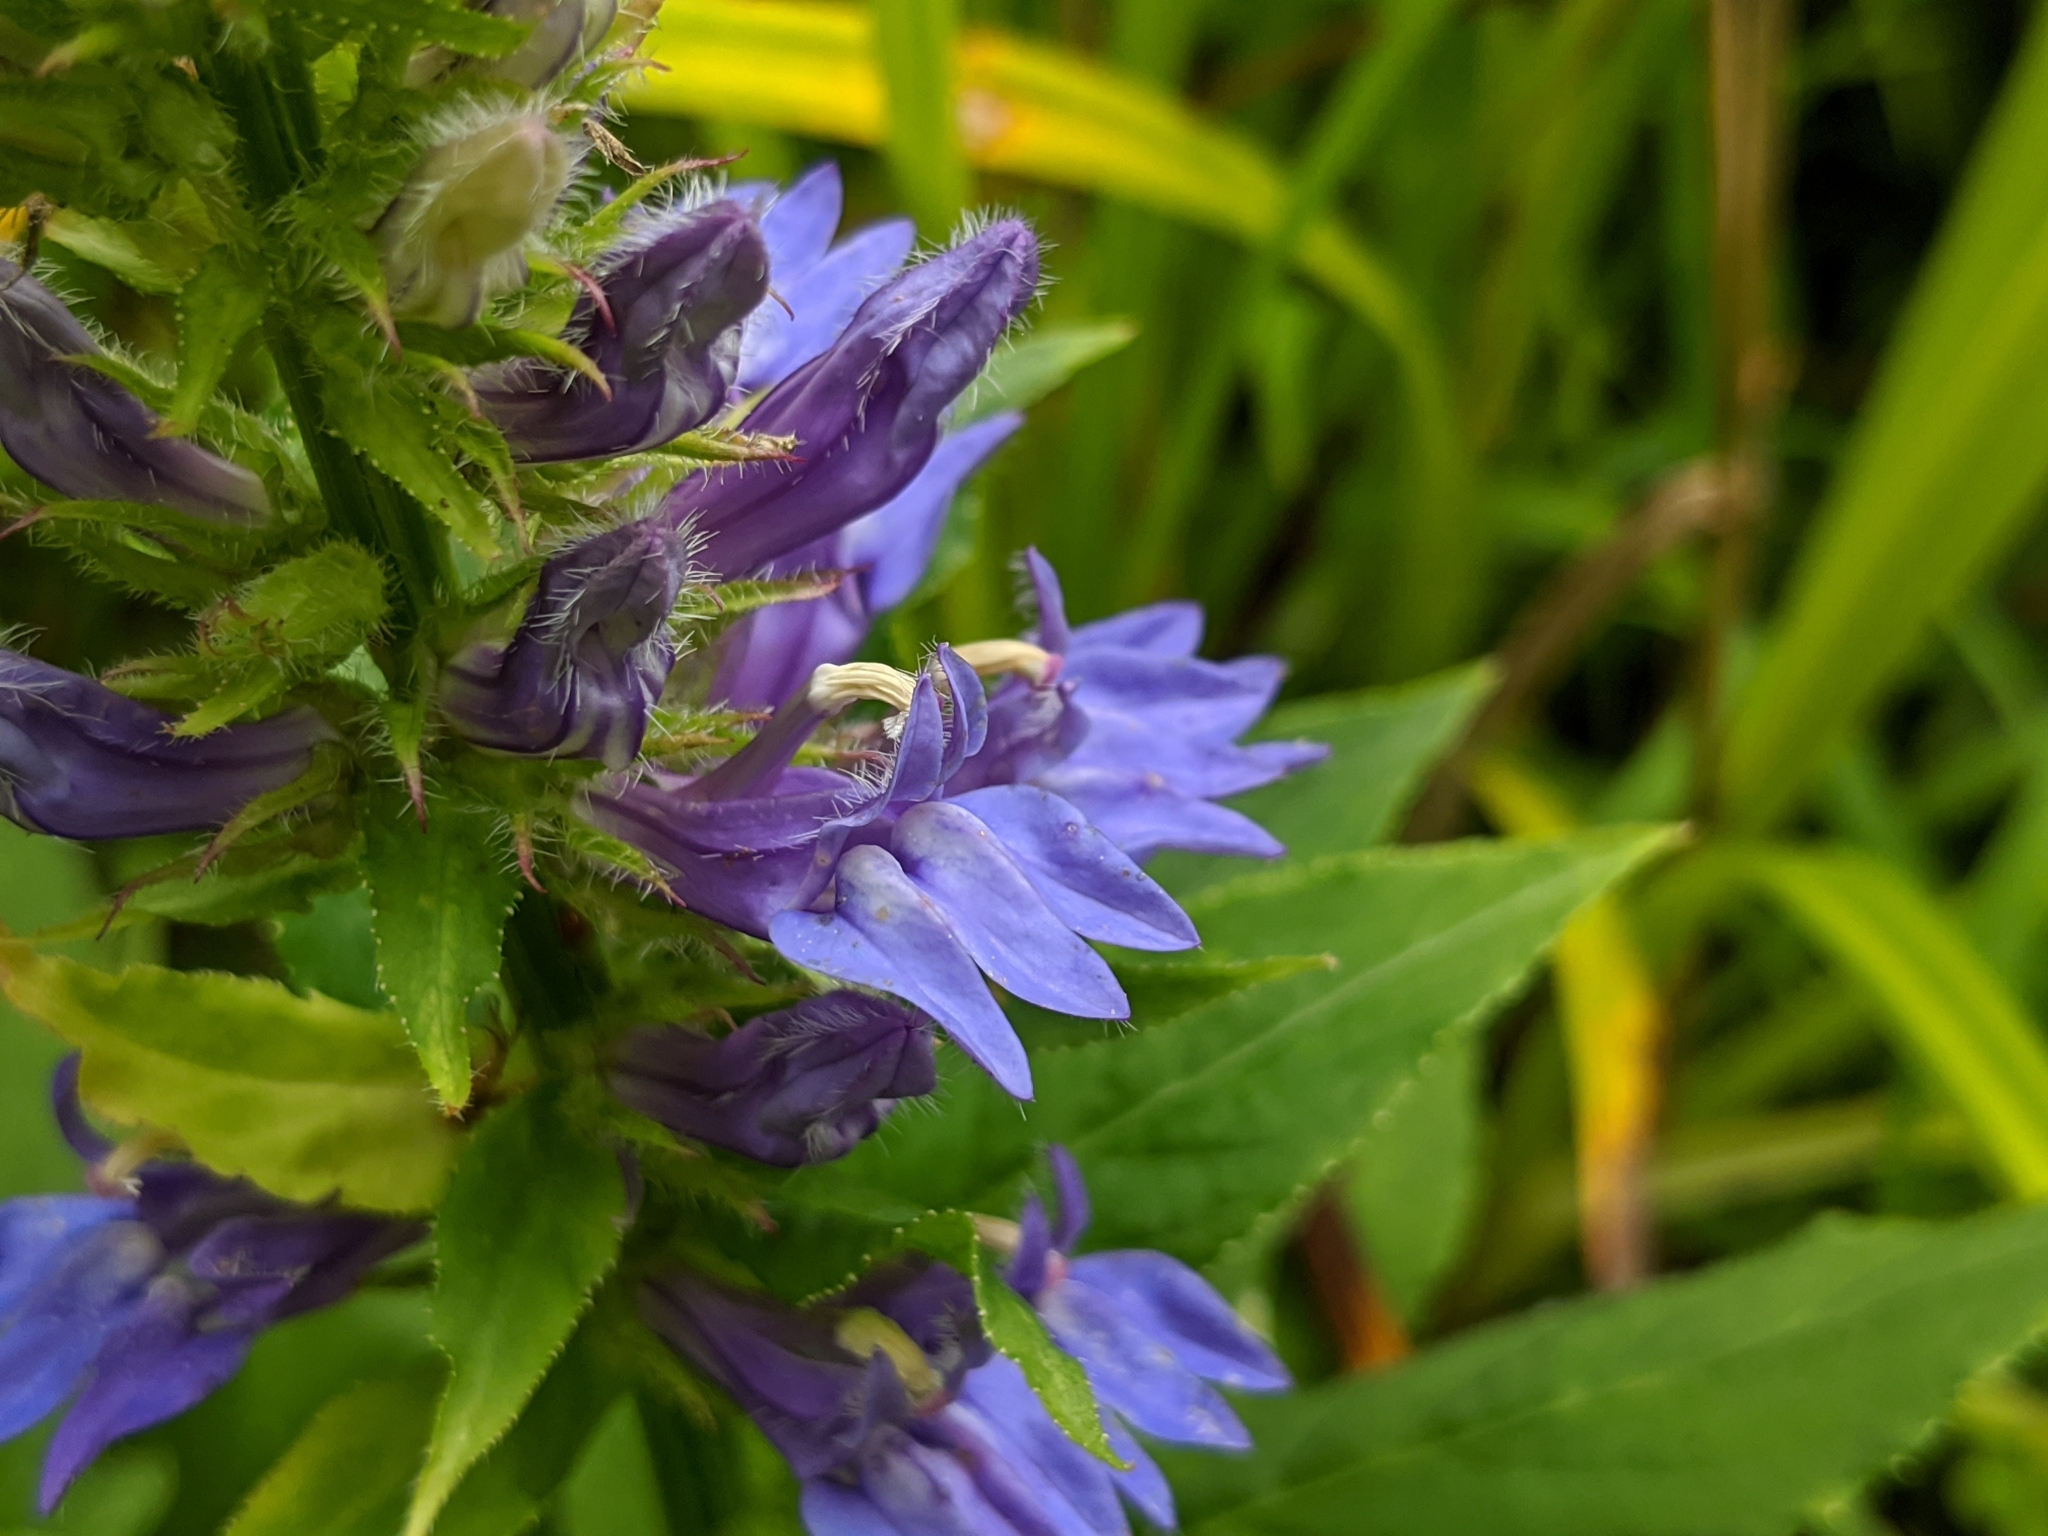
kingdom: Plantae
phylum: Tracheophyta
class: Magnoliopsida
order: Asterales
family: Campanulaceae
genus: Lobelia
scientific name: Lobelia siphilitica
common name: Great lobelia
